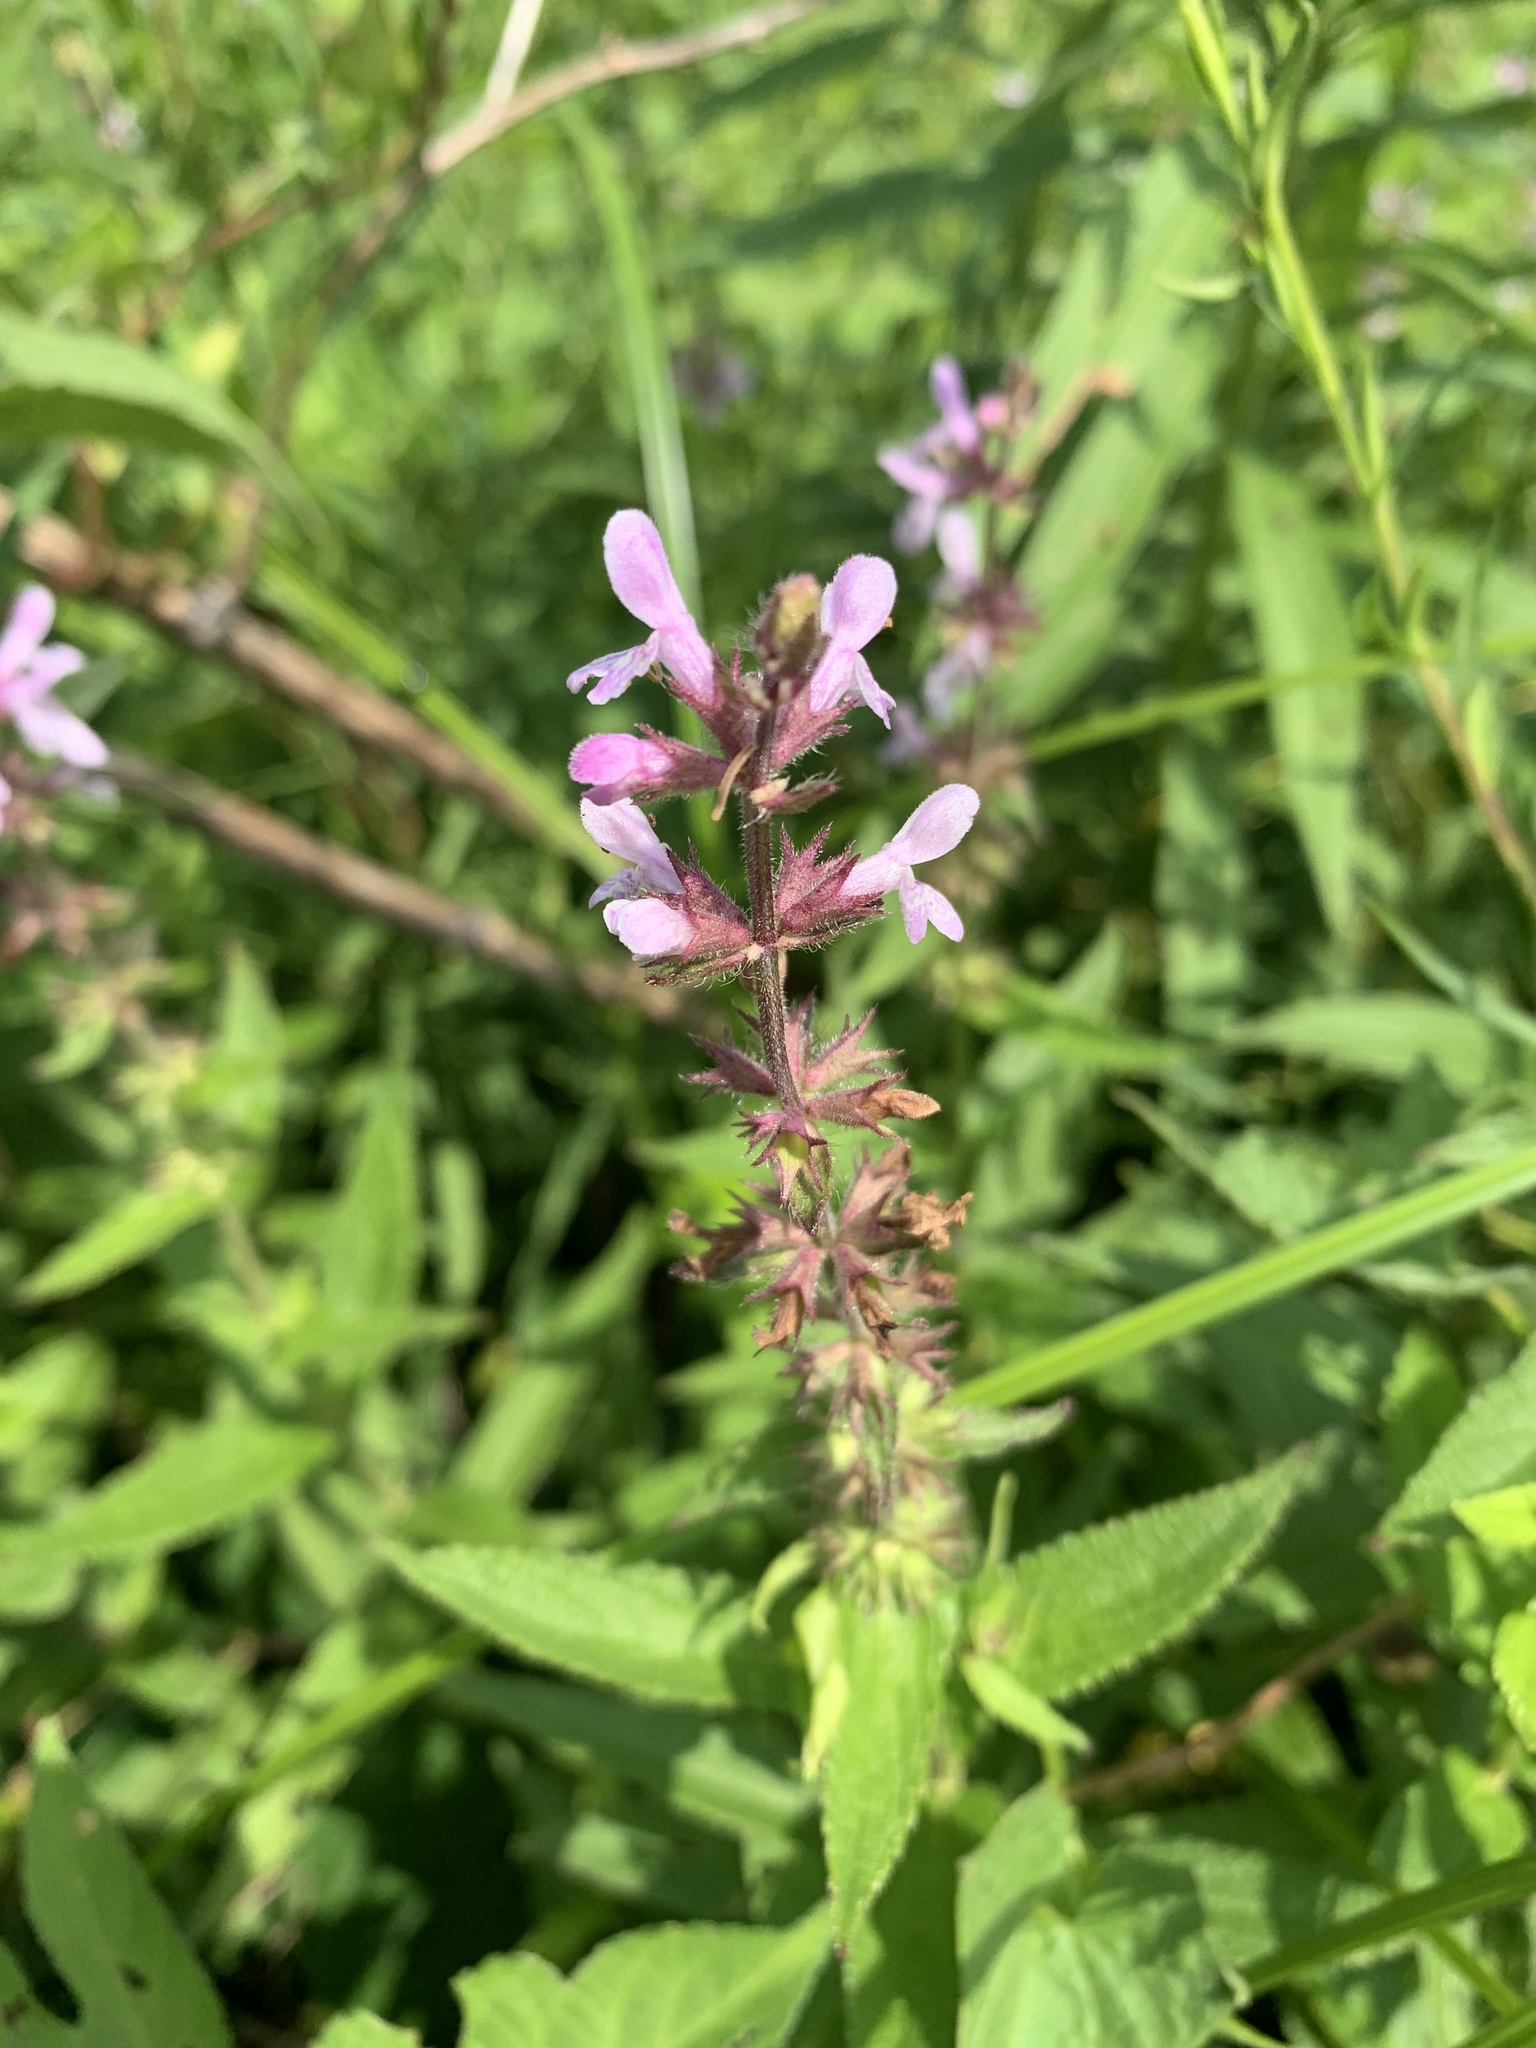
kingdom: Plantae
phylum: Tracheophyta
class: Magnoliopsida
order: Lamiales
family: Lamiaceae
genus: Stachys
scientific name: Stachys palustris
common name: Marsh woundwort
